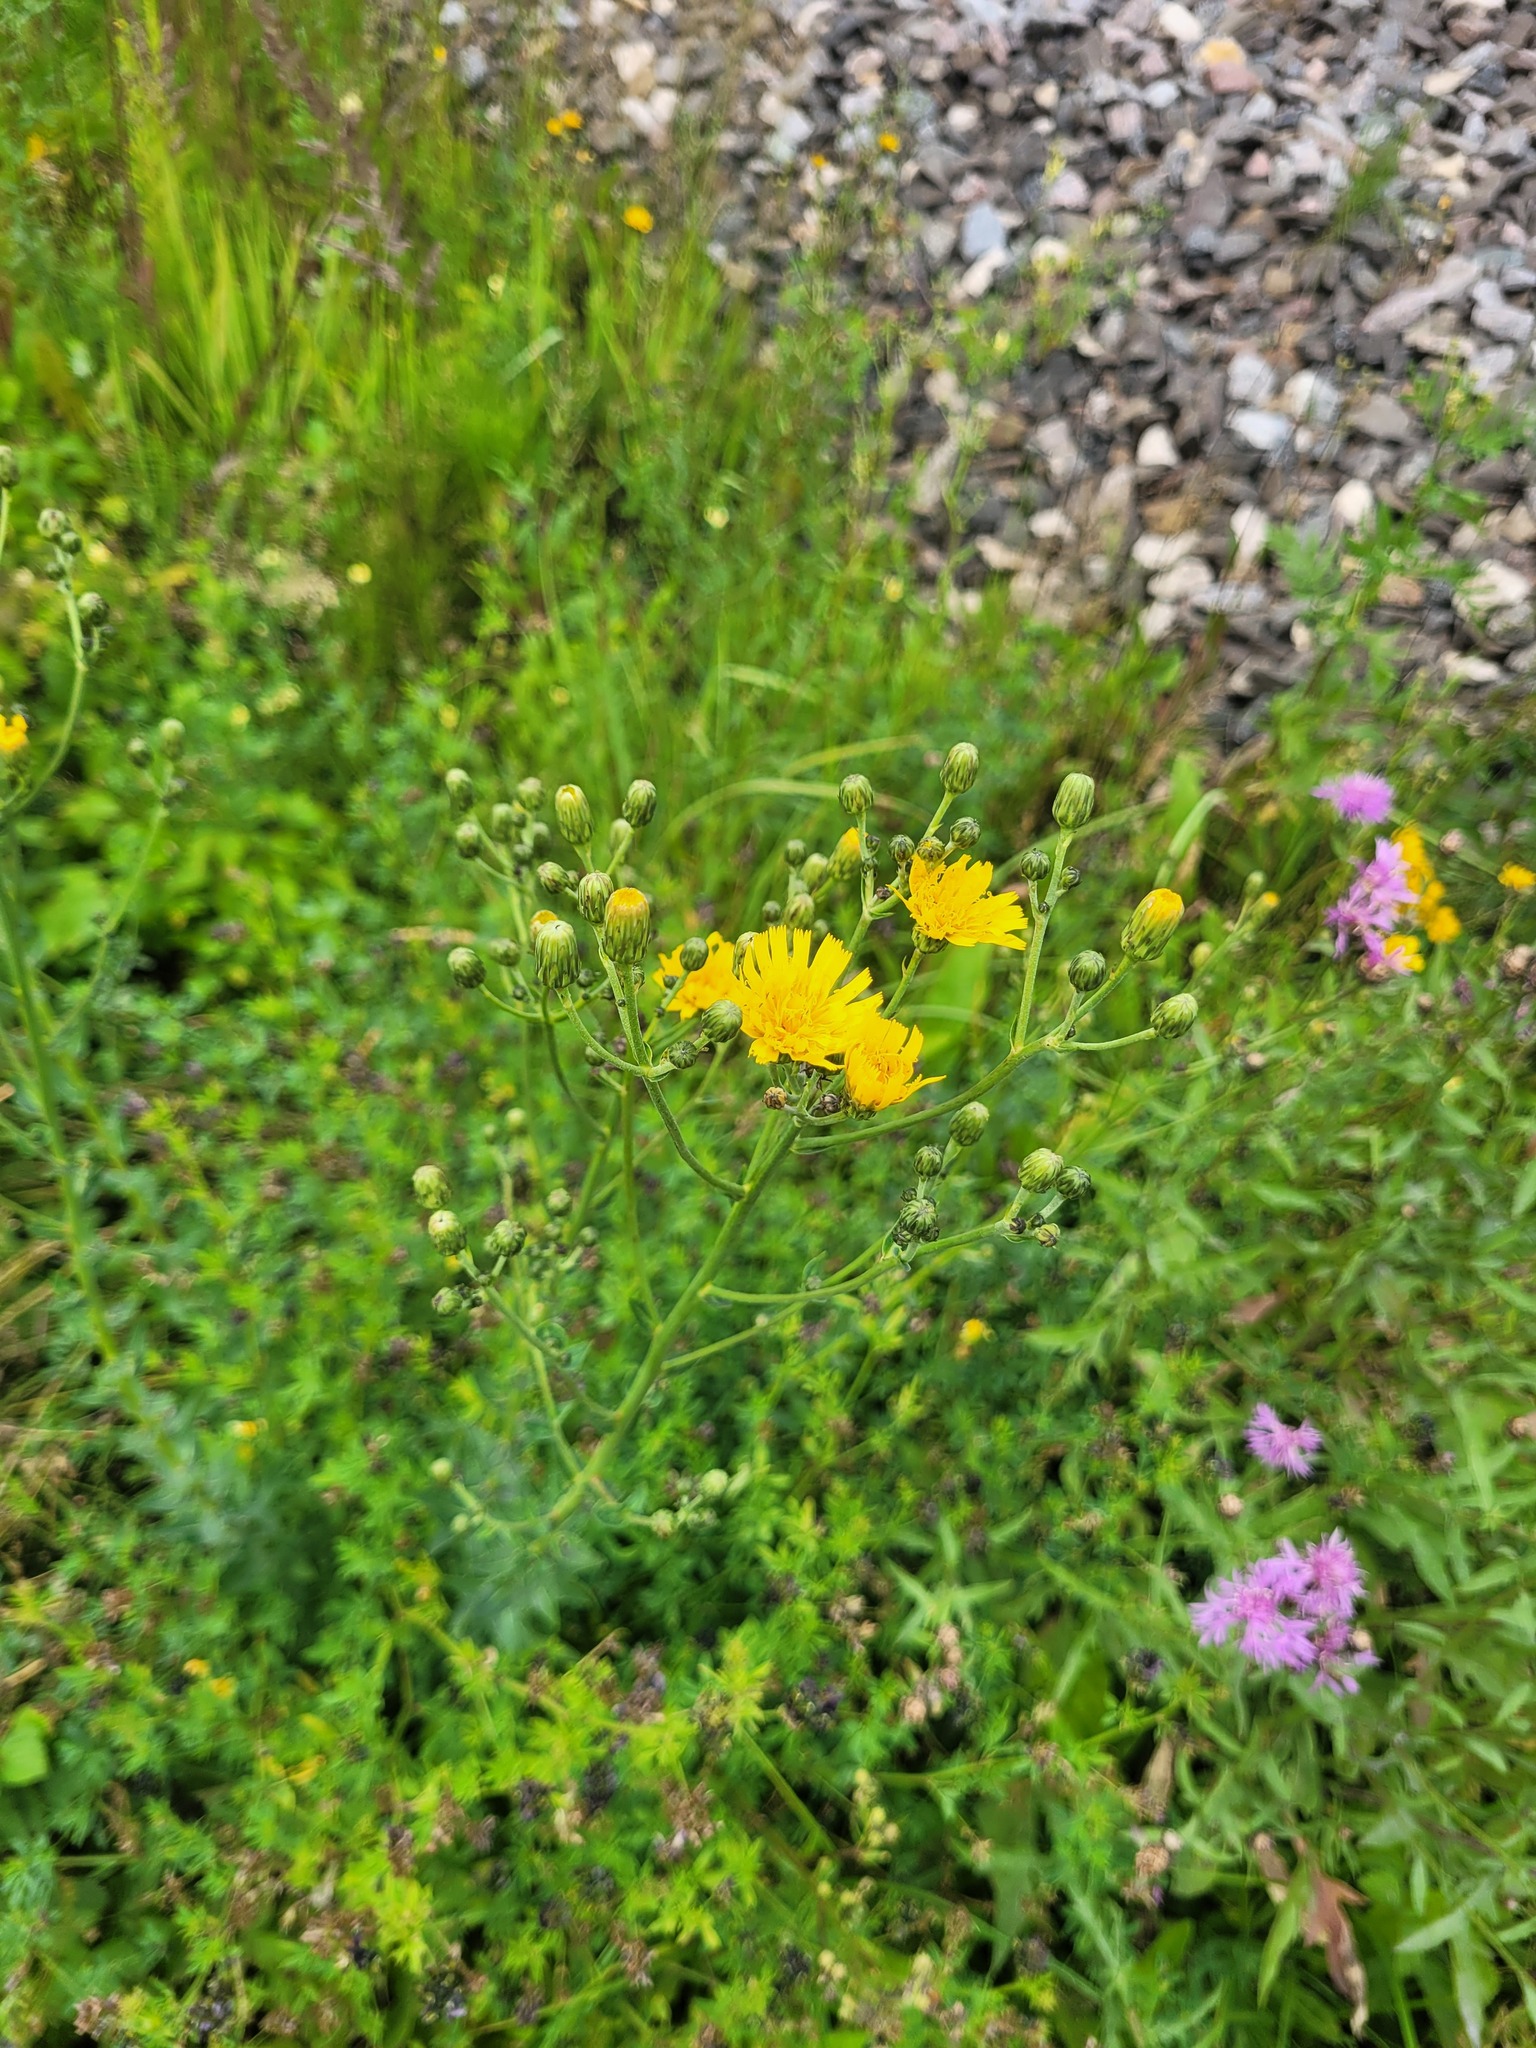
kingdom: Plantae
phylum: Tracheophyta
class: Magnoliopsida
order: Asterales
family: Asteraceae
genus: Hieracium
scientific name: Hieracium robustum
